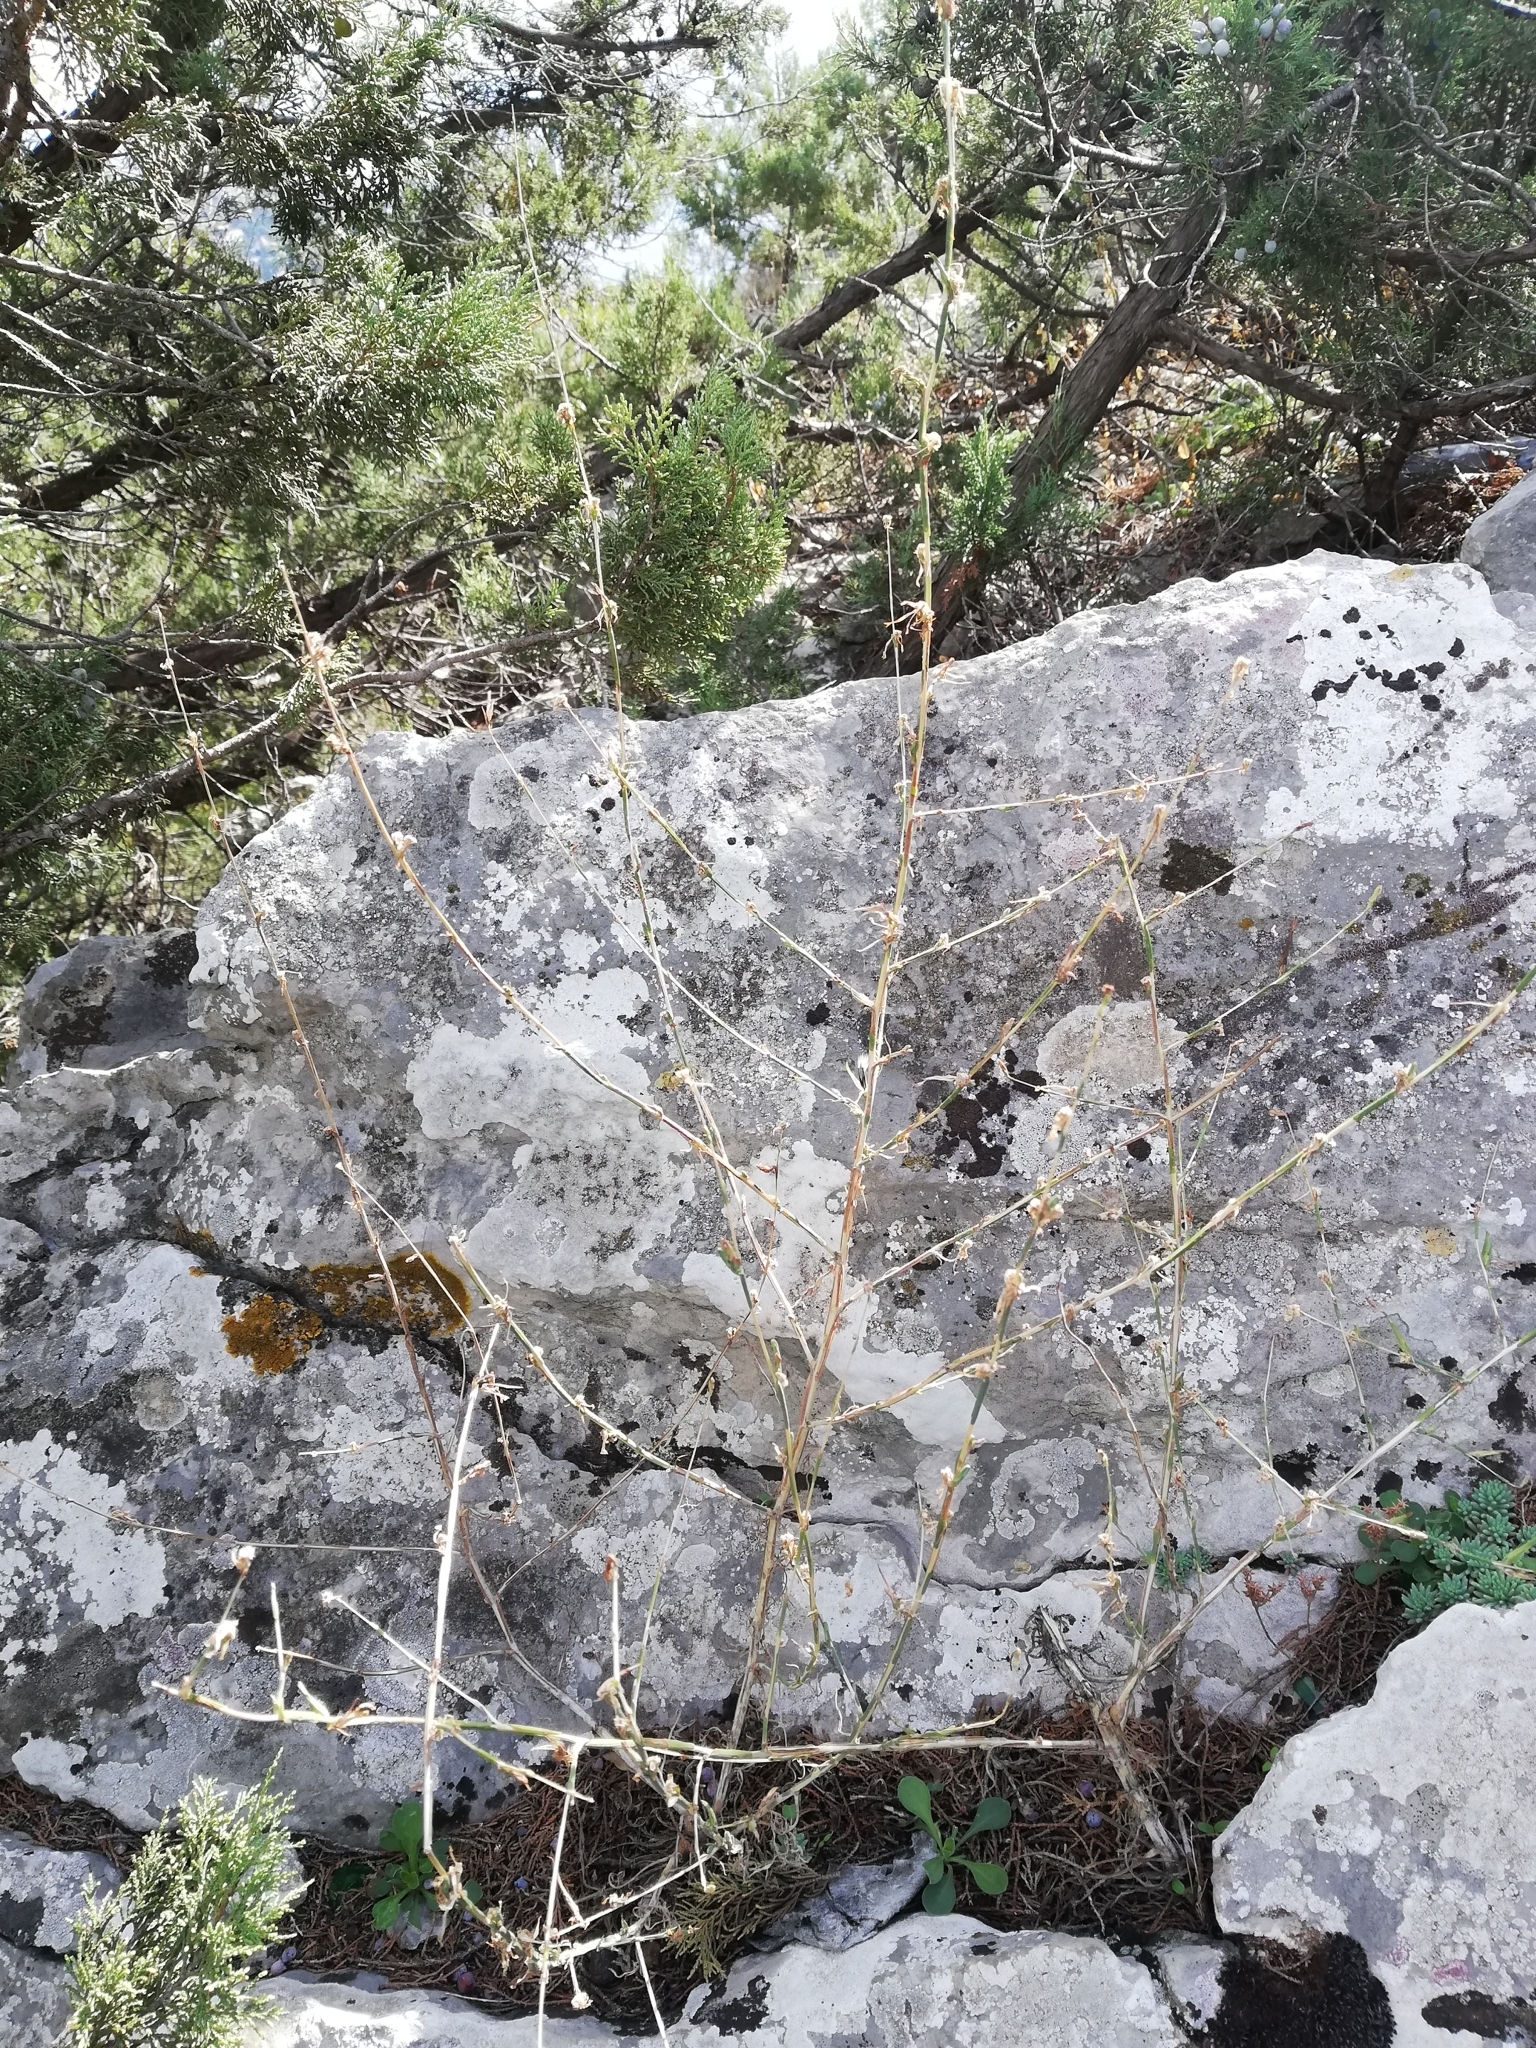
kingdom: Plantae
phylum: Tracheophyta
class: Magnoliopsida
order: Asterales
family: Asteraceae
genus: Lactuca
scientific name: Lactuca viminea
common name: Pliant lettuce
